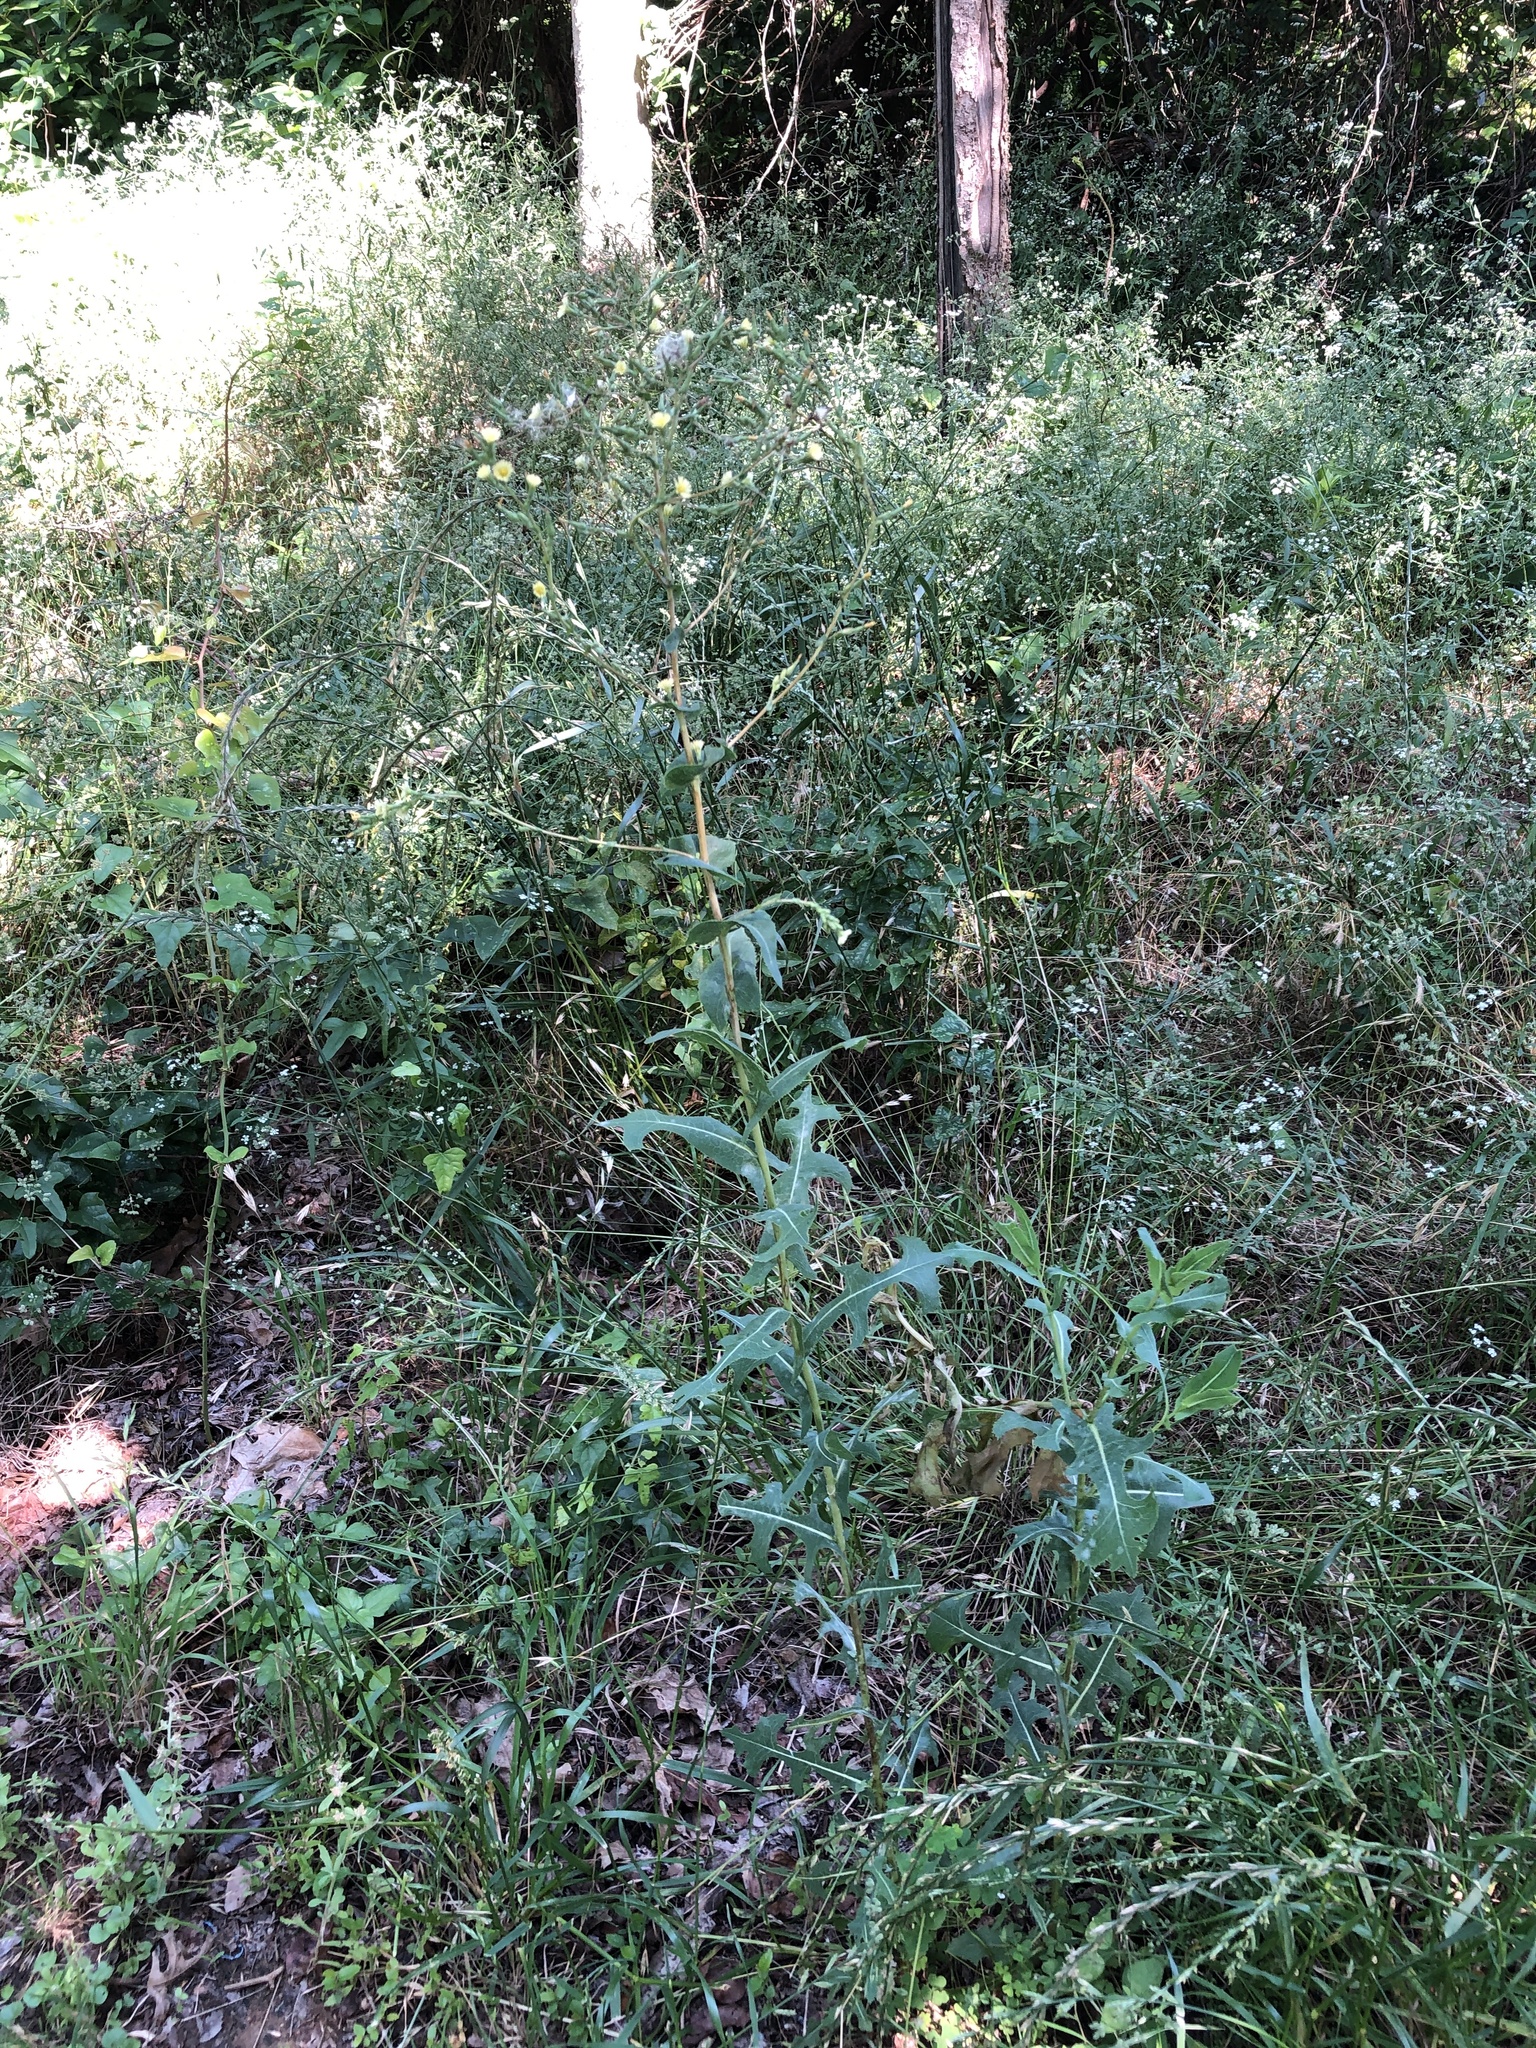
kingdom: Plantae
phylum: Tracheophyta
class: Magnoliopsida
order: Asterales
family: Asteraceae
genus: Lactuca
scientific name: Lactuca serriola
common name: Prickly lettuce
